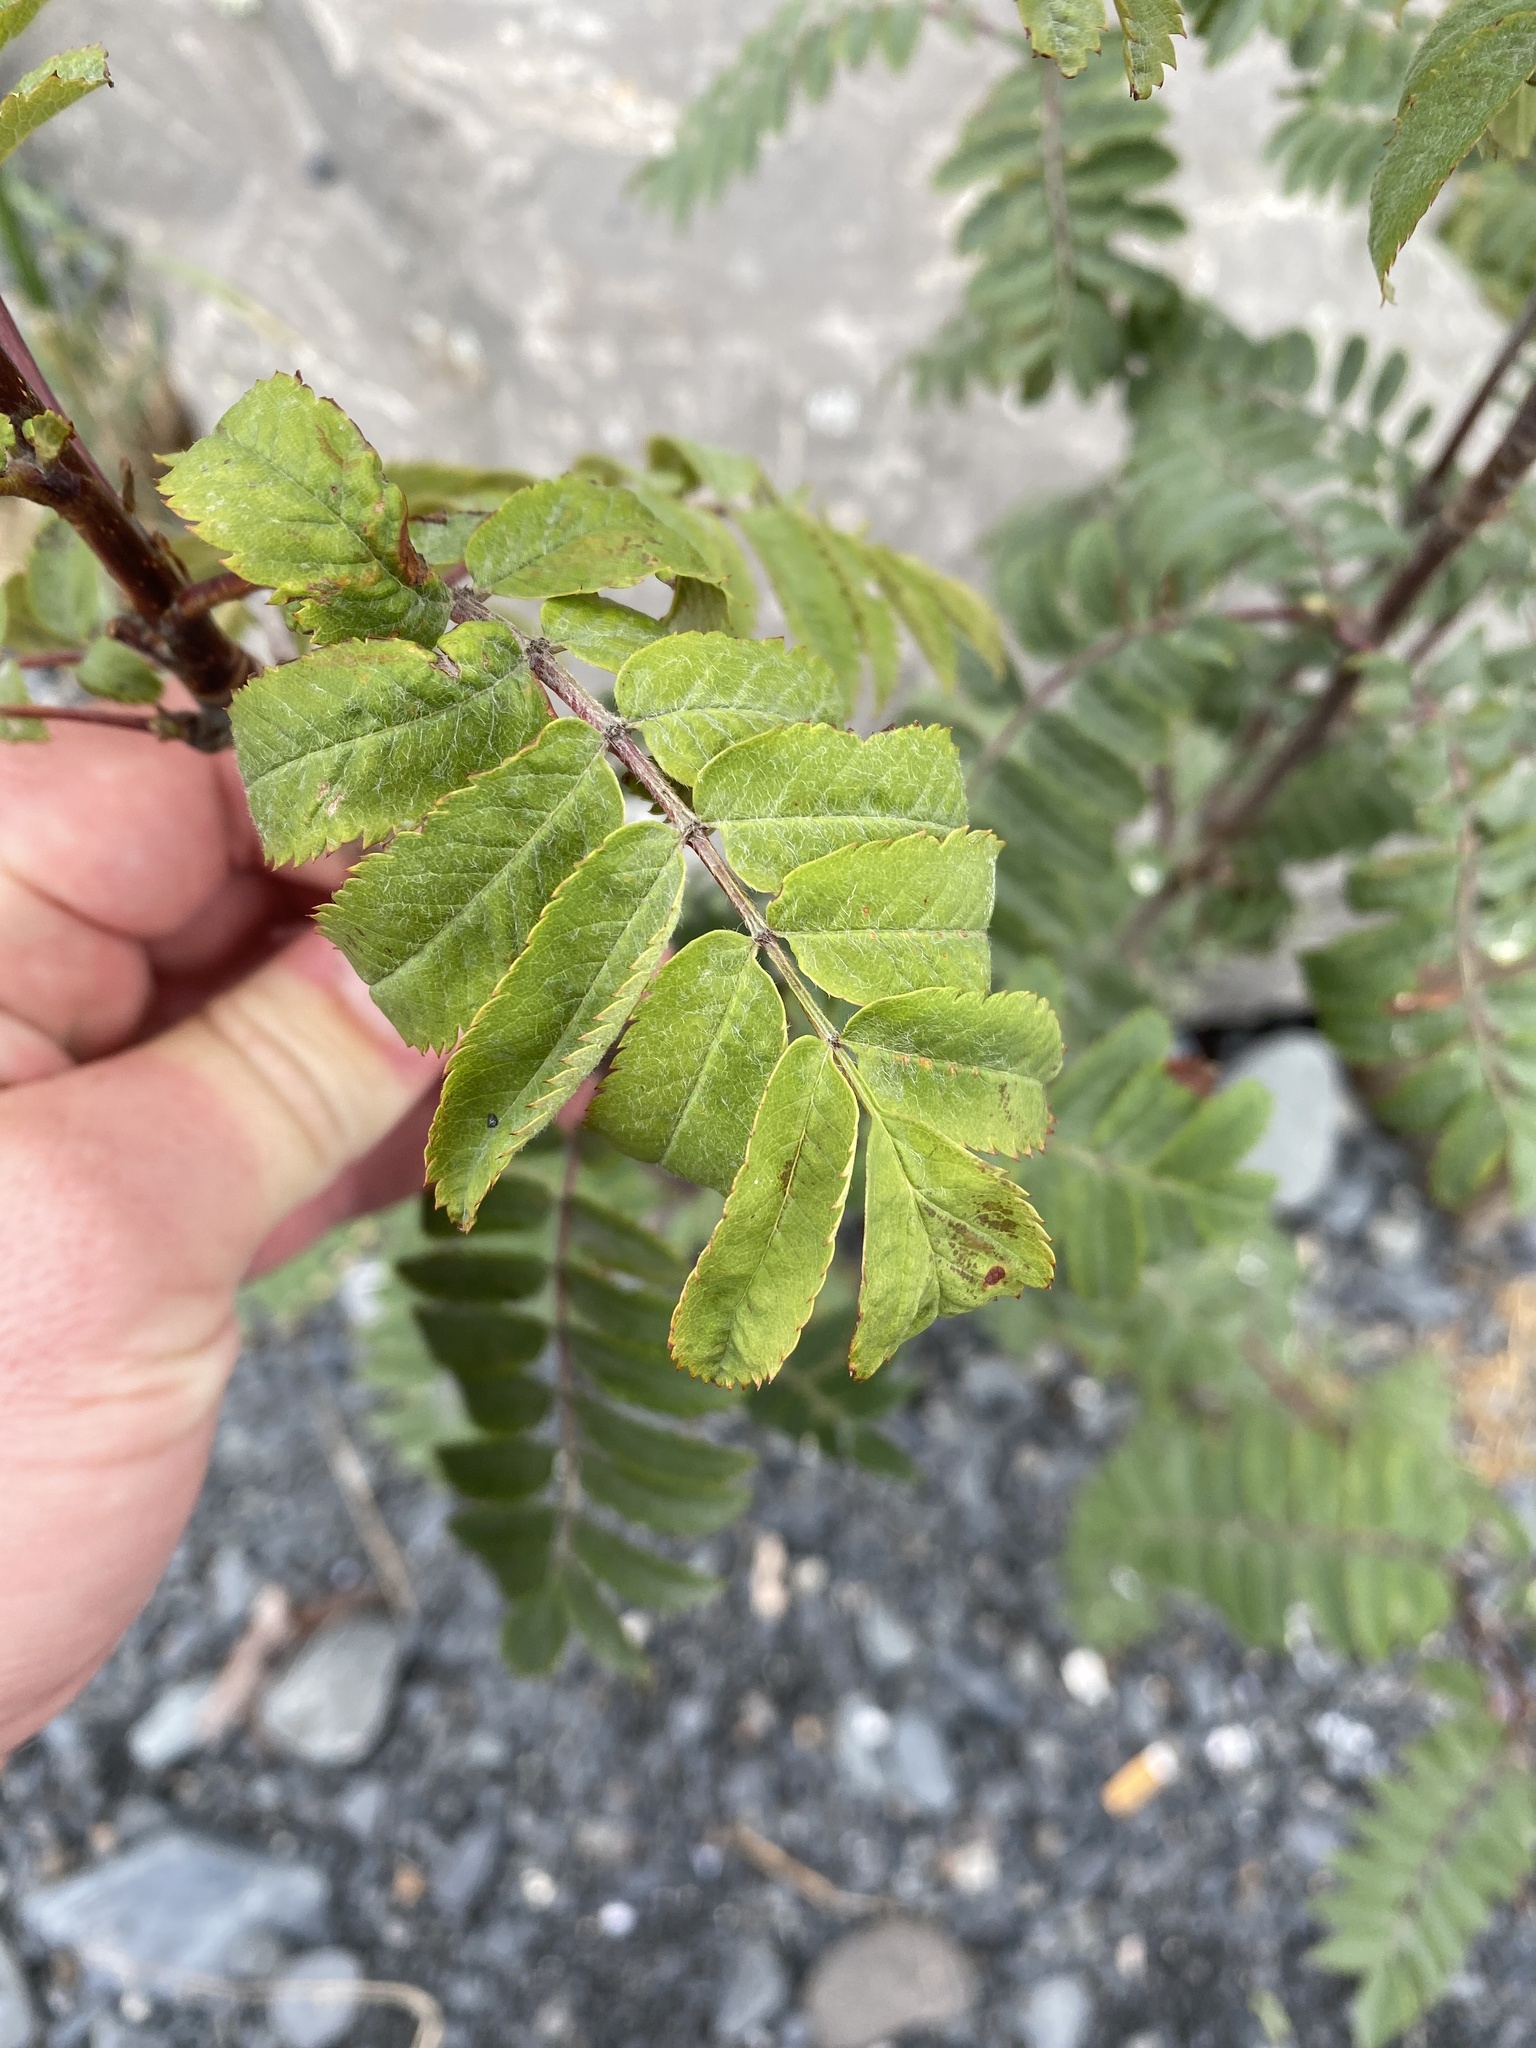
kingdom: Plantae
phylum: Tracheophyta
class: Magnoliopsida
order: Rosales
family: Rosaceae
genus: Sorbus
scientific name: Sorbus aucuparia
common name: Rowan
